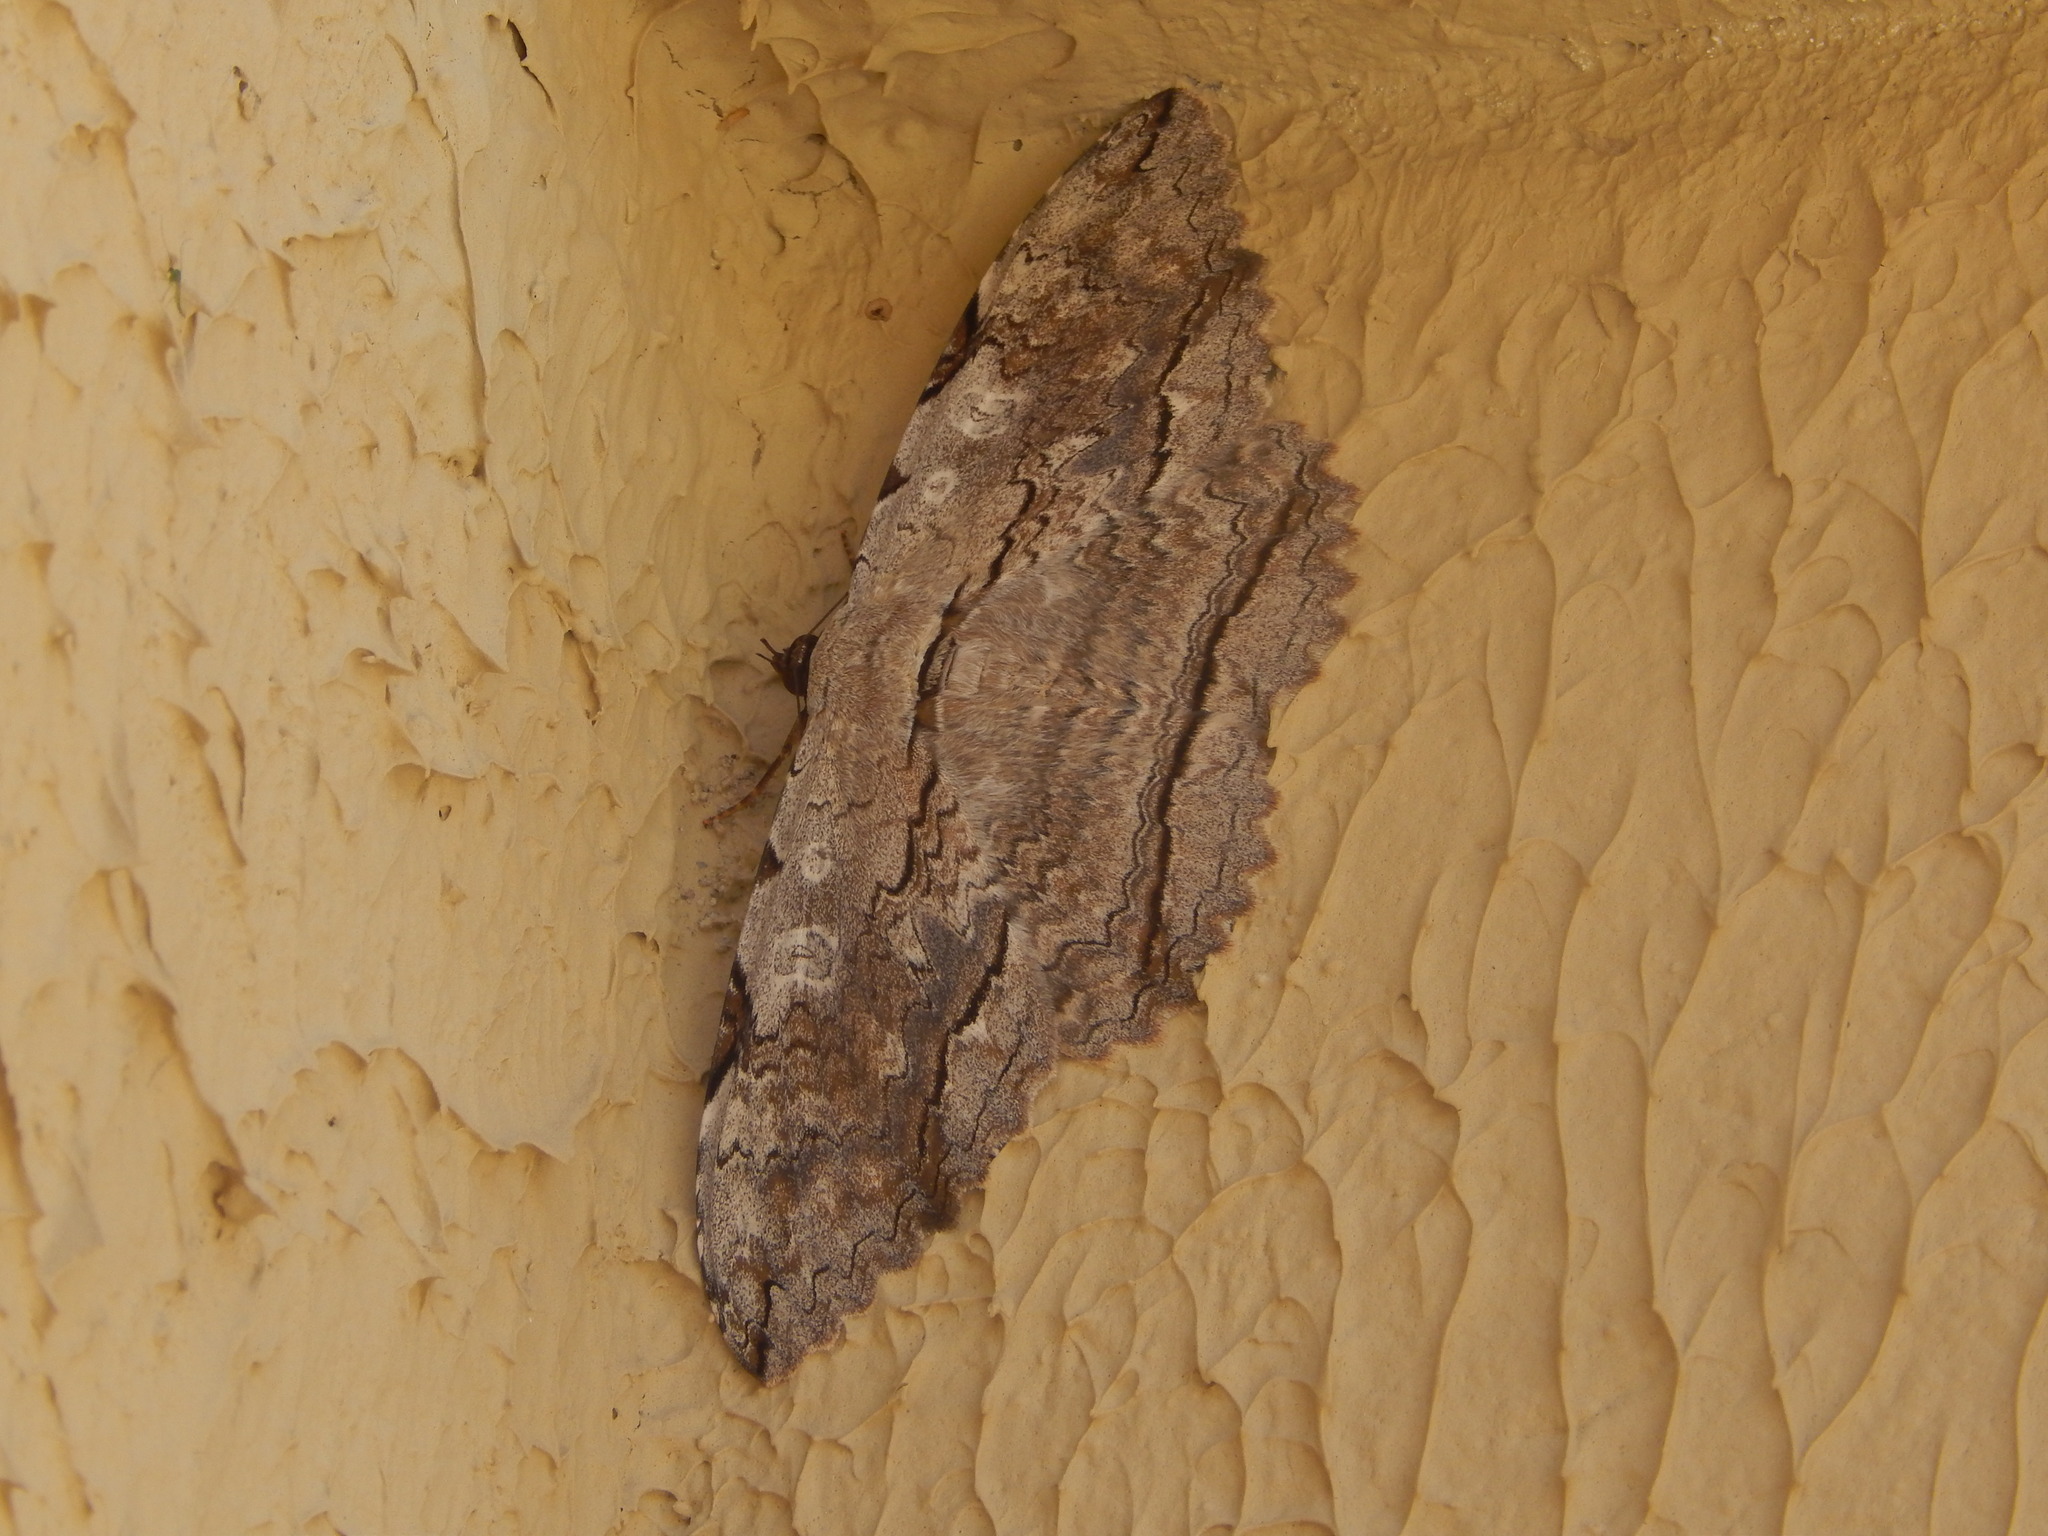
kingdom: Animalia
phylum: Arthropoda
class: Insecta
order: Lepidoptera
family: Erebidae
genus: Thysania
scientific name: Thysania zenobia
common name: Owl moth
